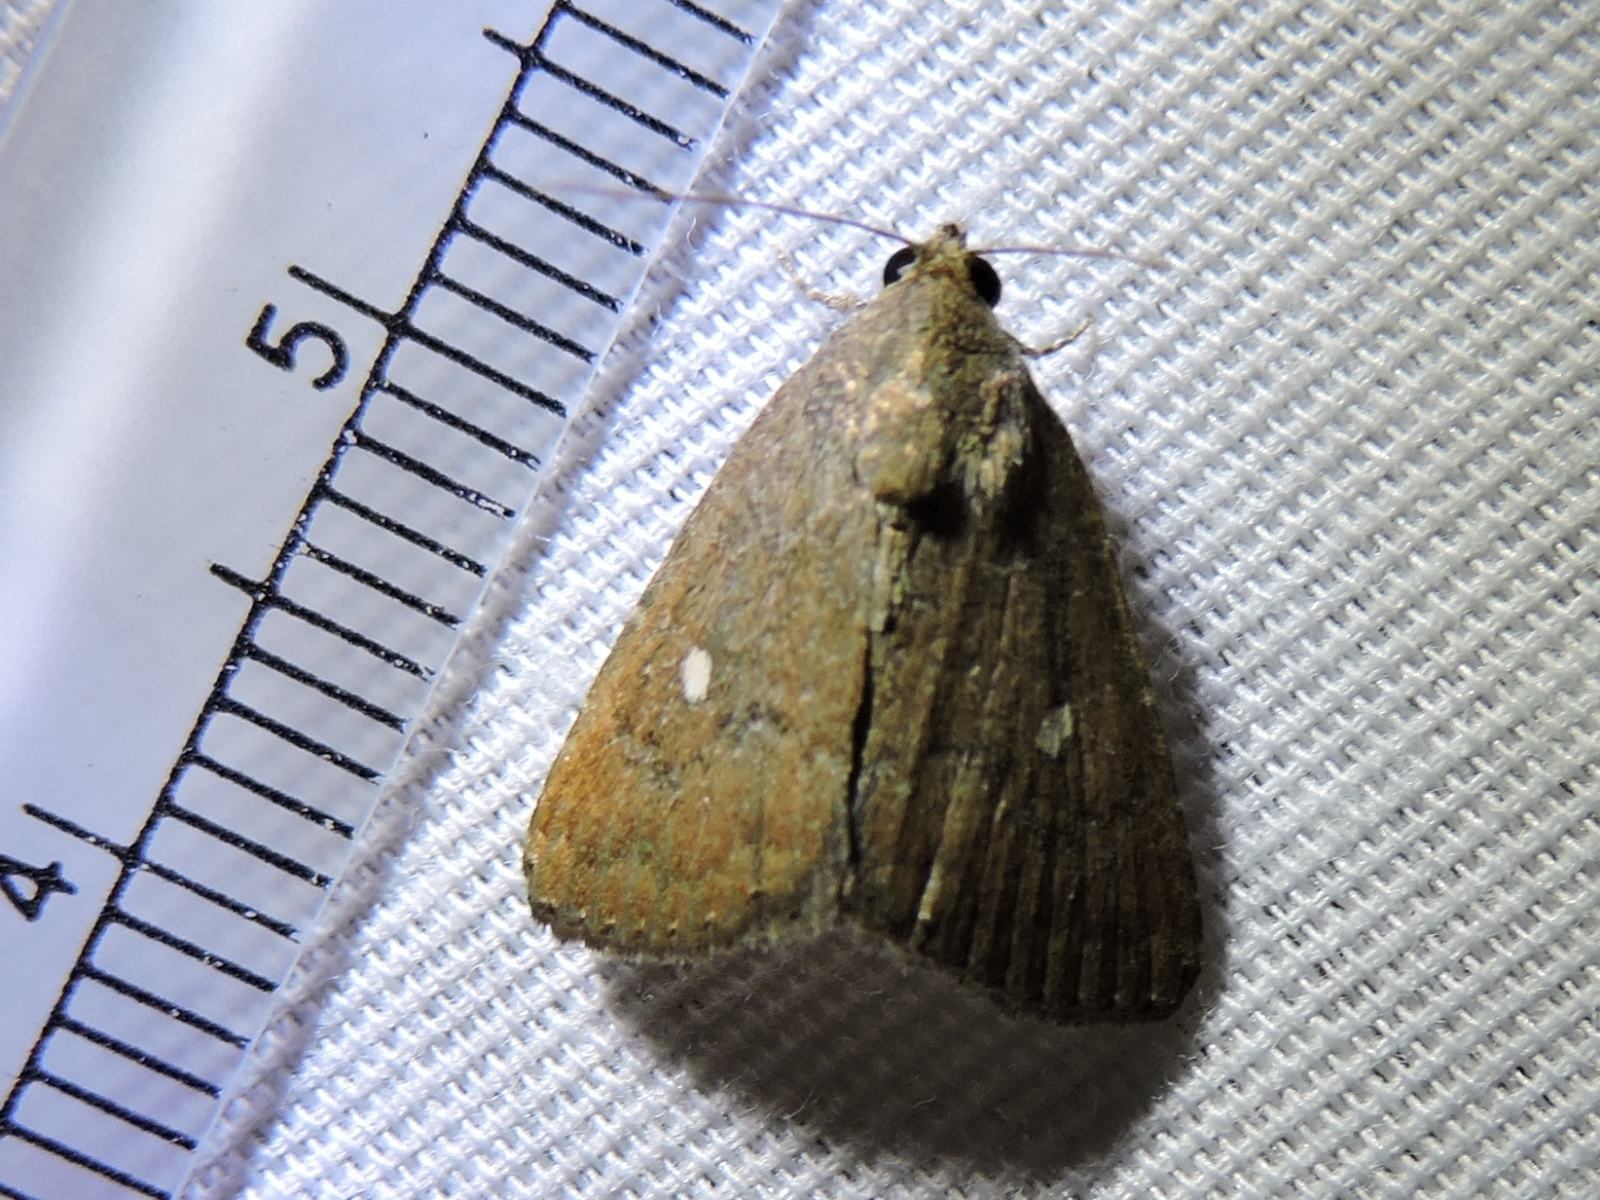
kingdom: Animalia
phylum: Arthropoda
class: Insecta
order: Lepidoptera
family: Noctuidae
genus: Amyna
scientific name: Amyna stricta
